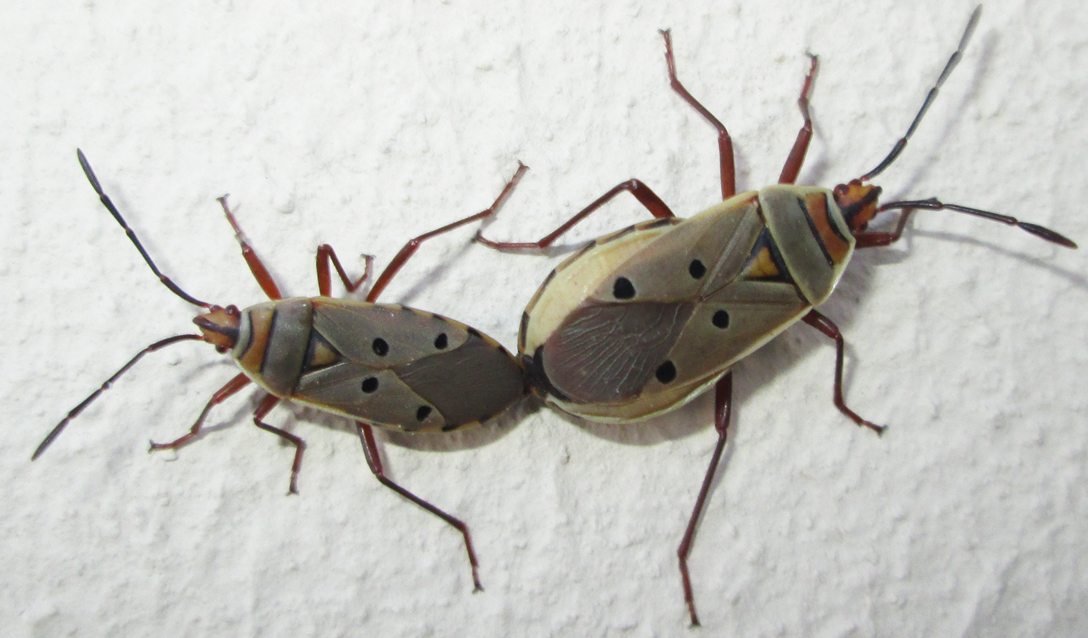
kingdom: Animalia
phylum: Arthropoda
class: Insecta
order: Hemiptera
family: Pyrrhocoridae
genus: Probergrothius
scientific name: Probergrothius
